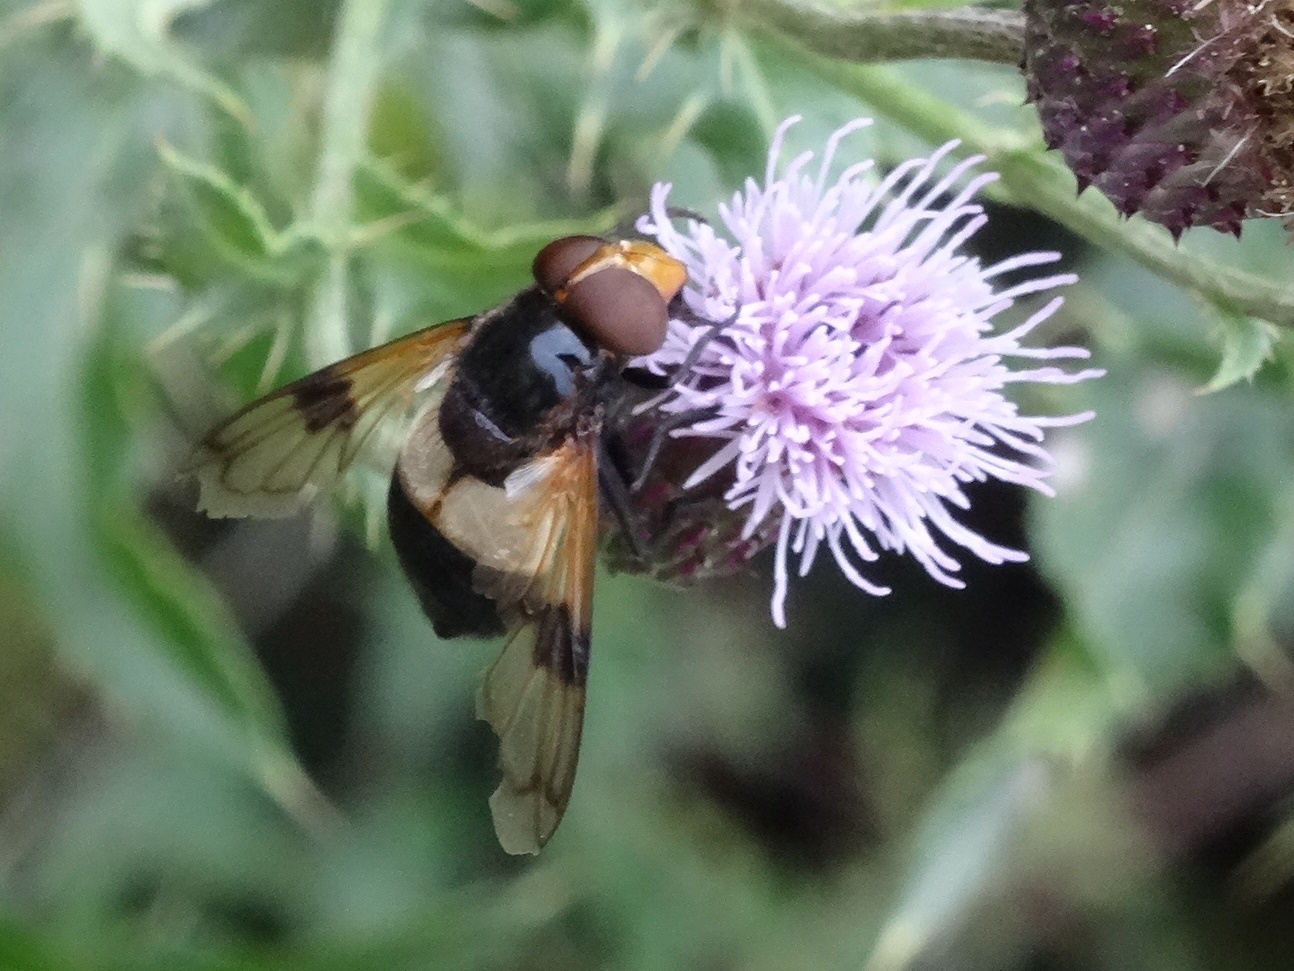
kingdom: Animalia
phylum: Arthropoda
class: Insecta
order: Diptera
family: Syrphidae
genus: Volucella
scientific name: Volucella pellucens
